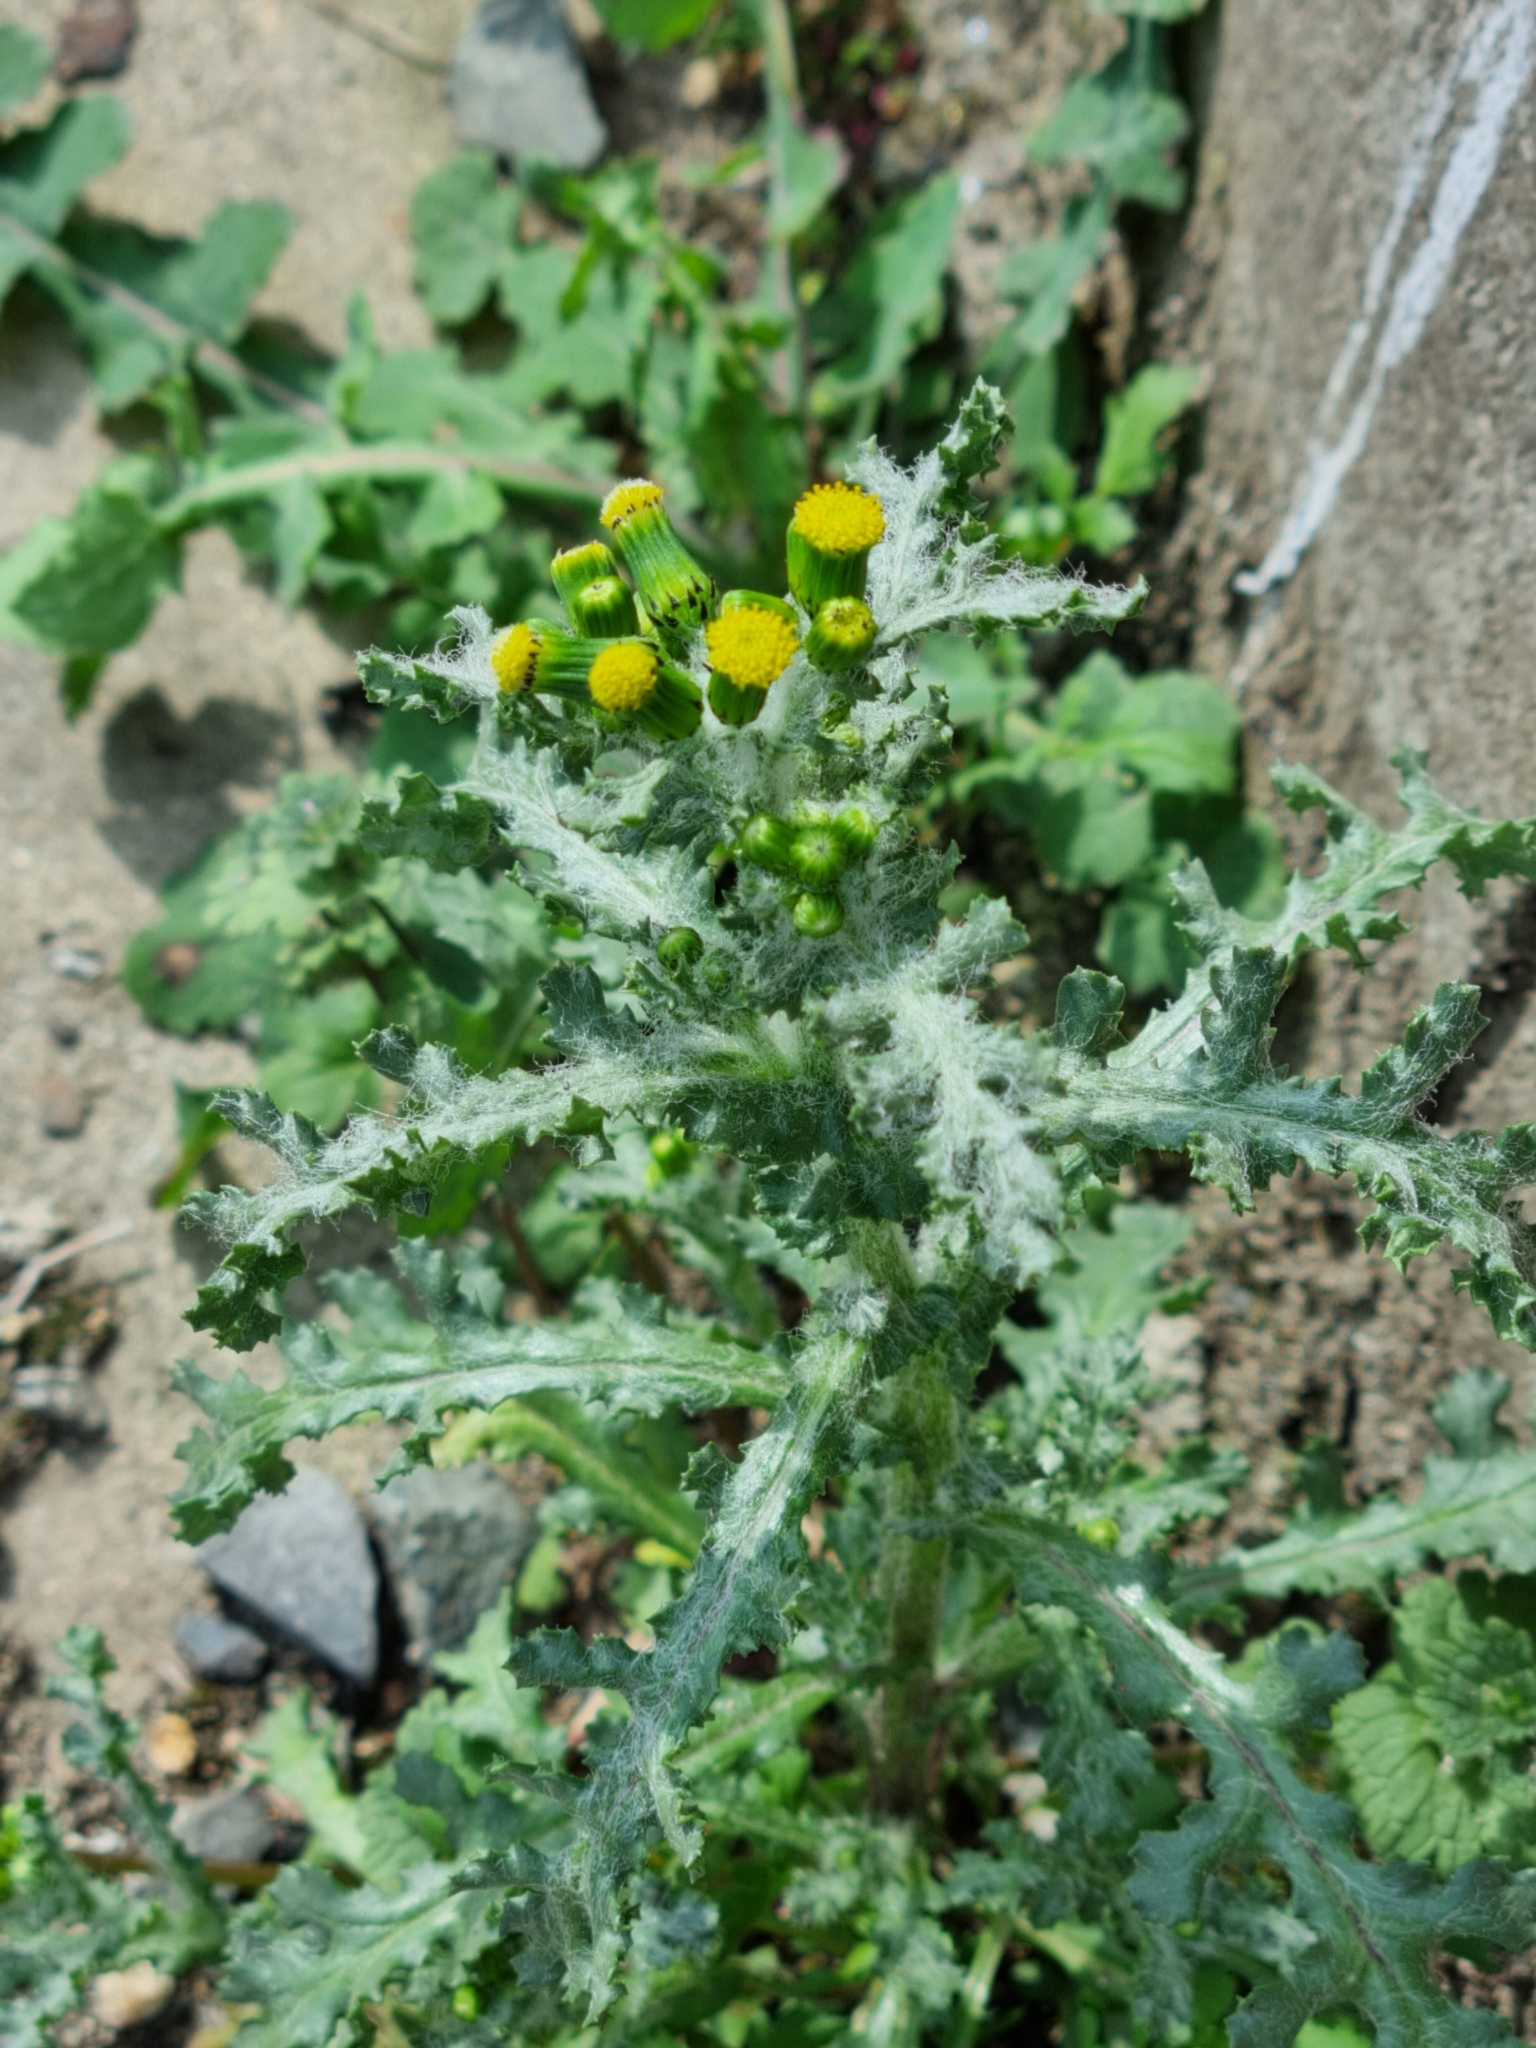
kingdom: Plantae
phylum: Tracheophyta
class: Magnoliopsida
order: Asterales
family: Asteraceae
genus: Senecio
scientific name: Senecio vulgaris
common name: Old-man-in-the-spring
